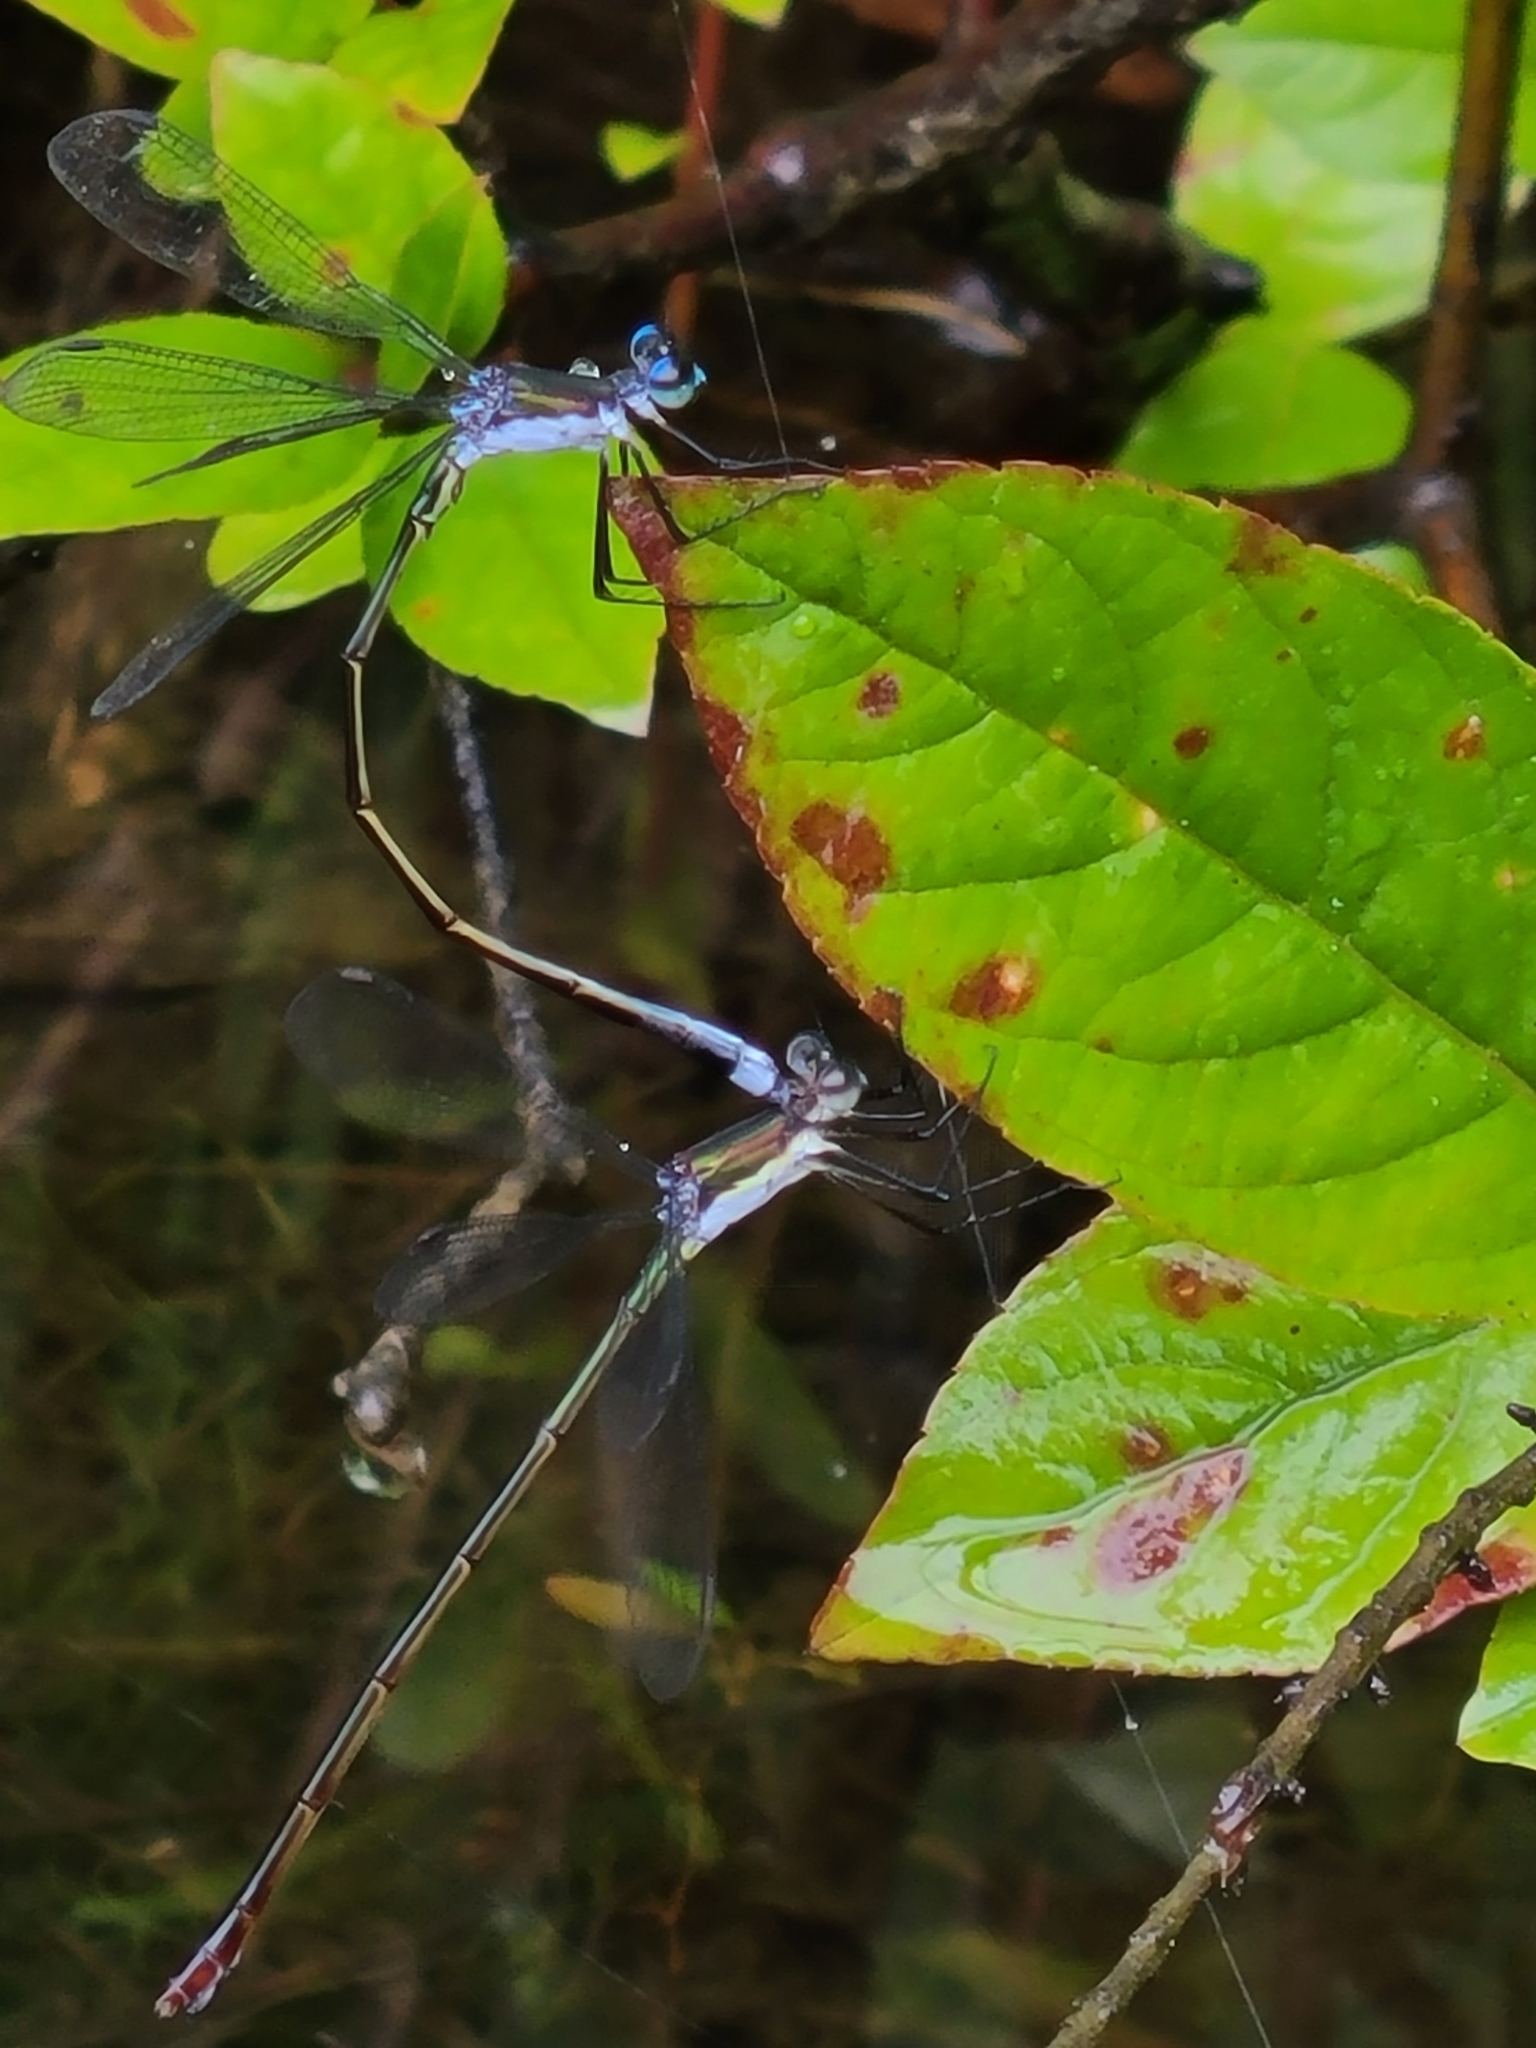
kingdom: Animalia
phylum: Arthropoda
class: Insecta
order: Odonata
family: Lestidae
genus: Lestes
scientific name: Lestes vigilax
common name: Swamp spreadwing
